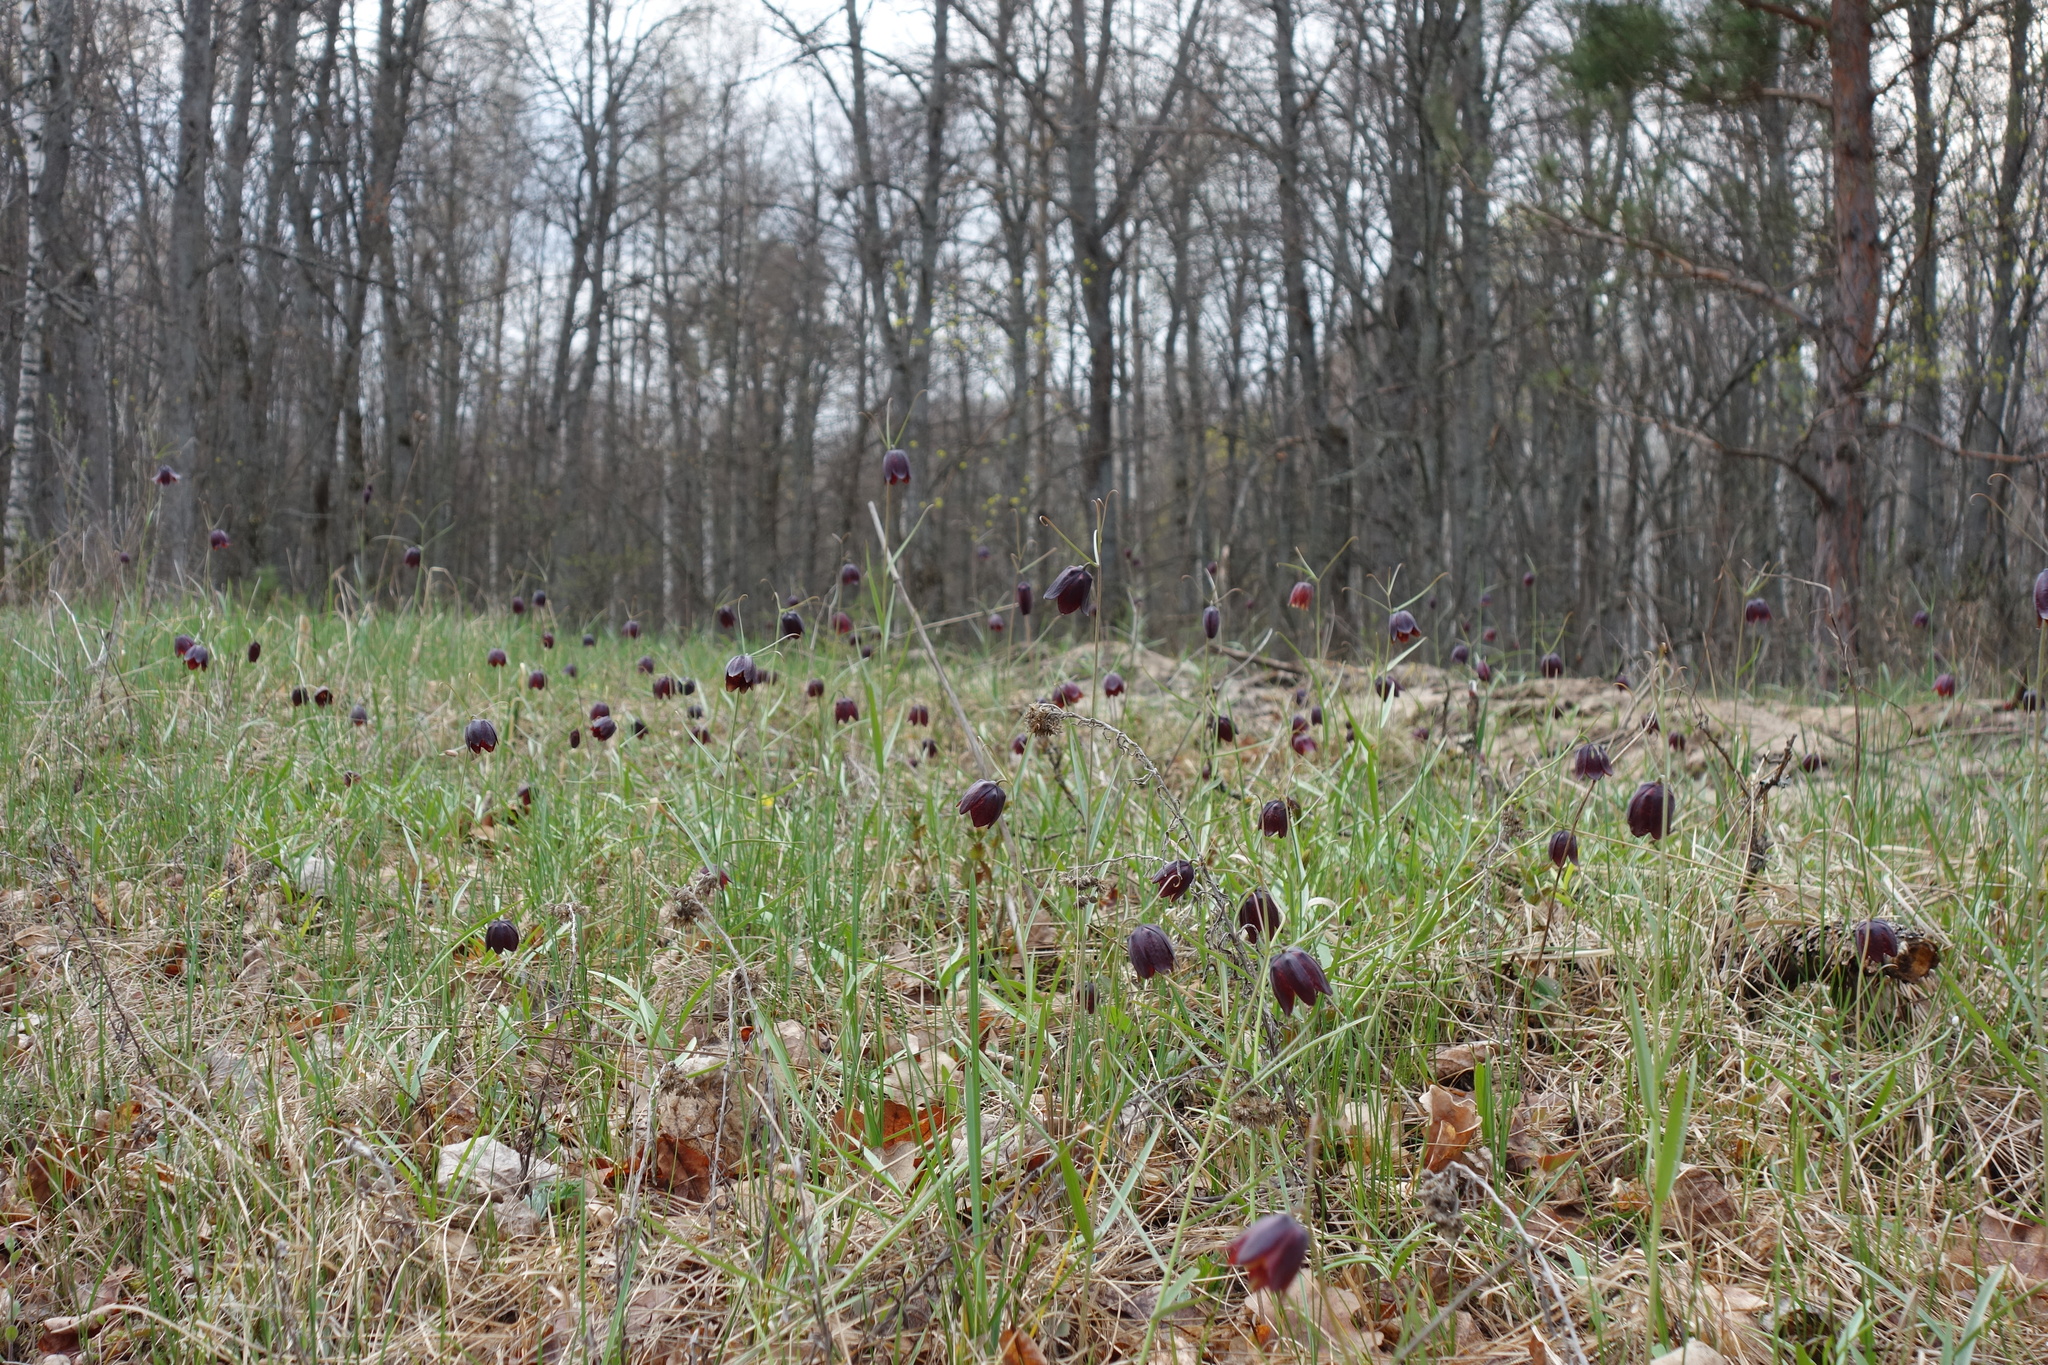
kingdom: Plantae
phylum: Tracheophyta
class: Liliopsida
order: Liliales
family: Liliaceae
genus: Fritillaria
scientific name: Fritillaria ruthenica
